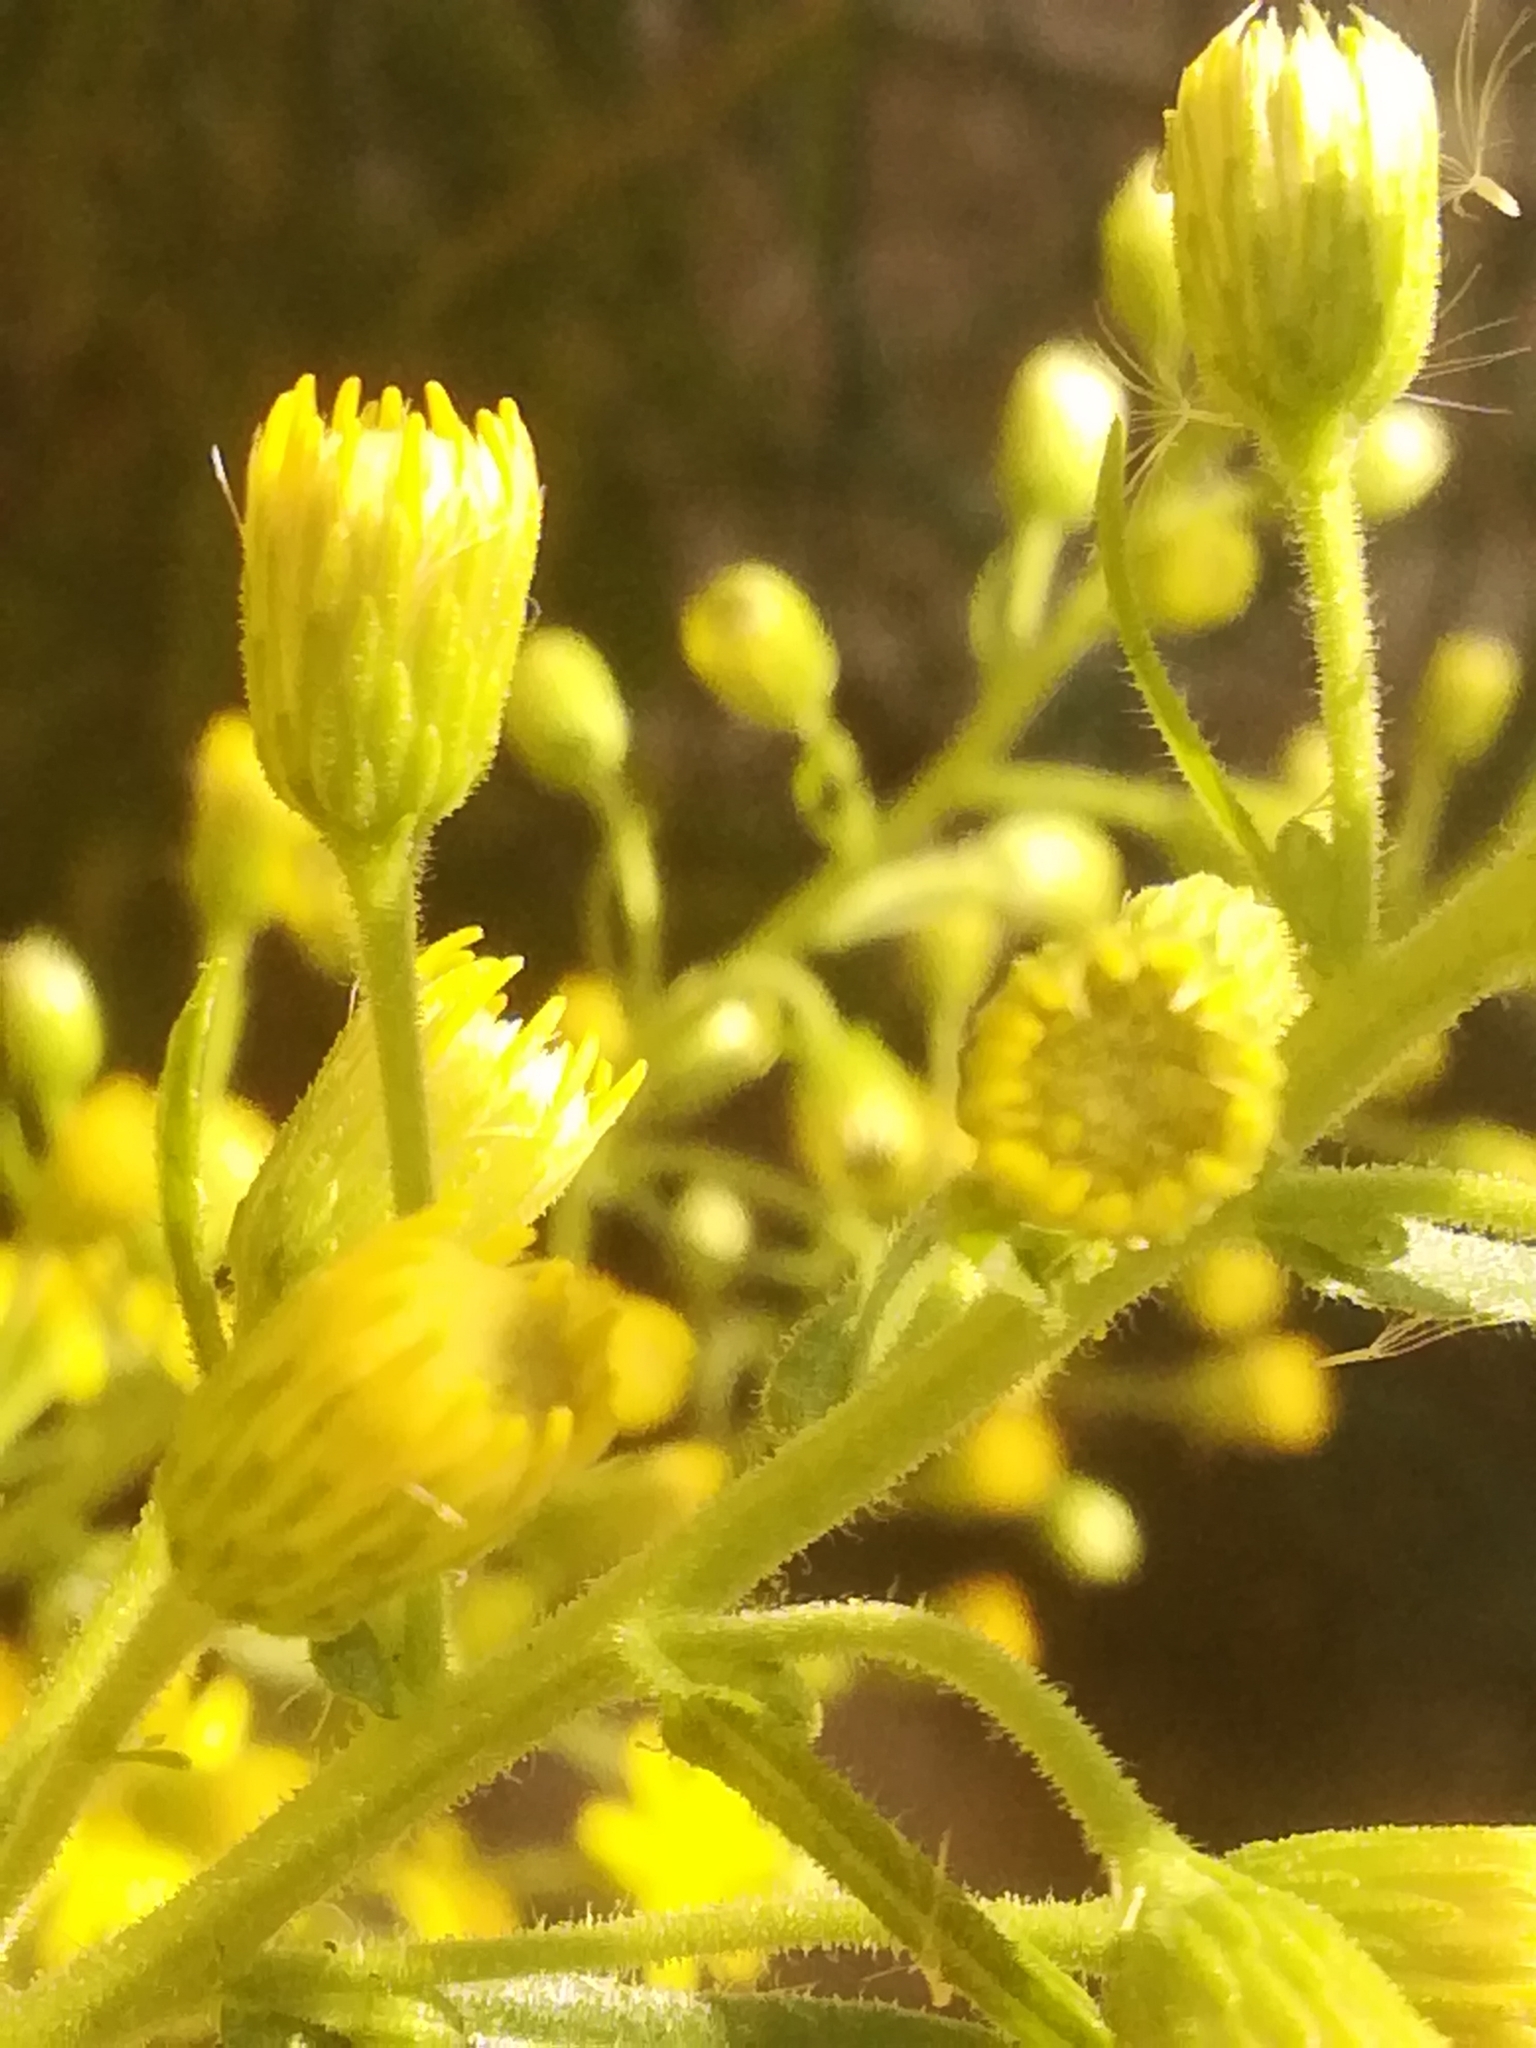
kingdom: Plantae
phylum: Tracheophyta
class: Magnoliopsida
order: Asterales
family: Asteraceae
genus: Dittrichia
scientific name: Dittrichia viscosa
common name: Woody fleabane
